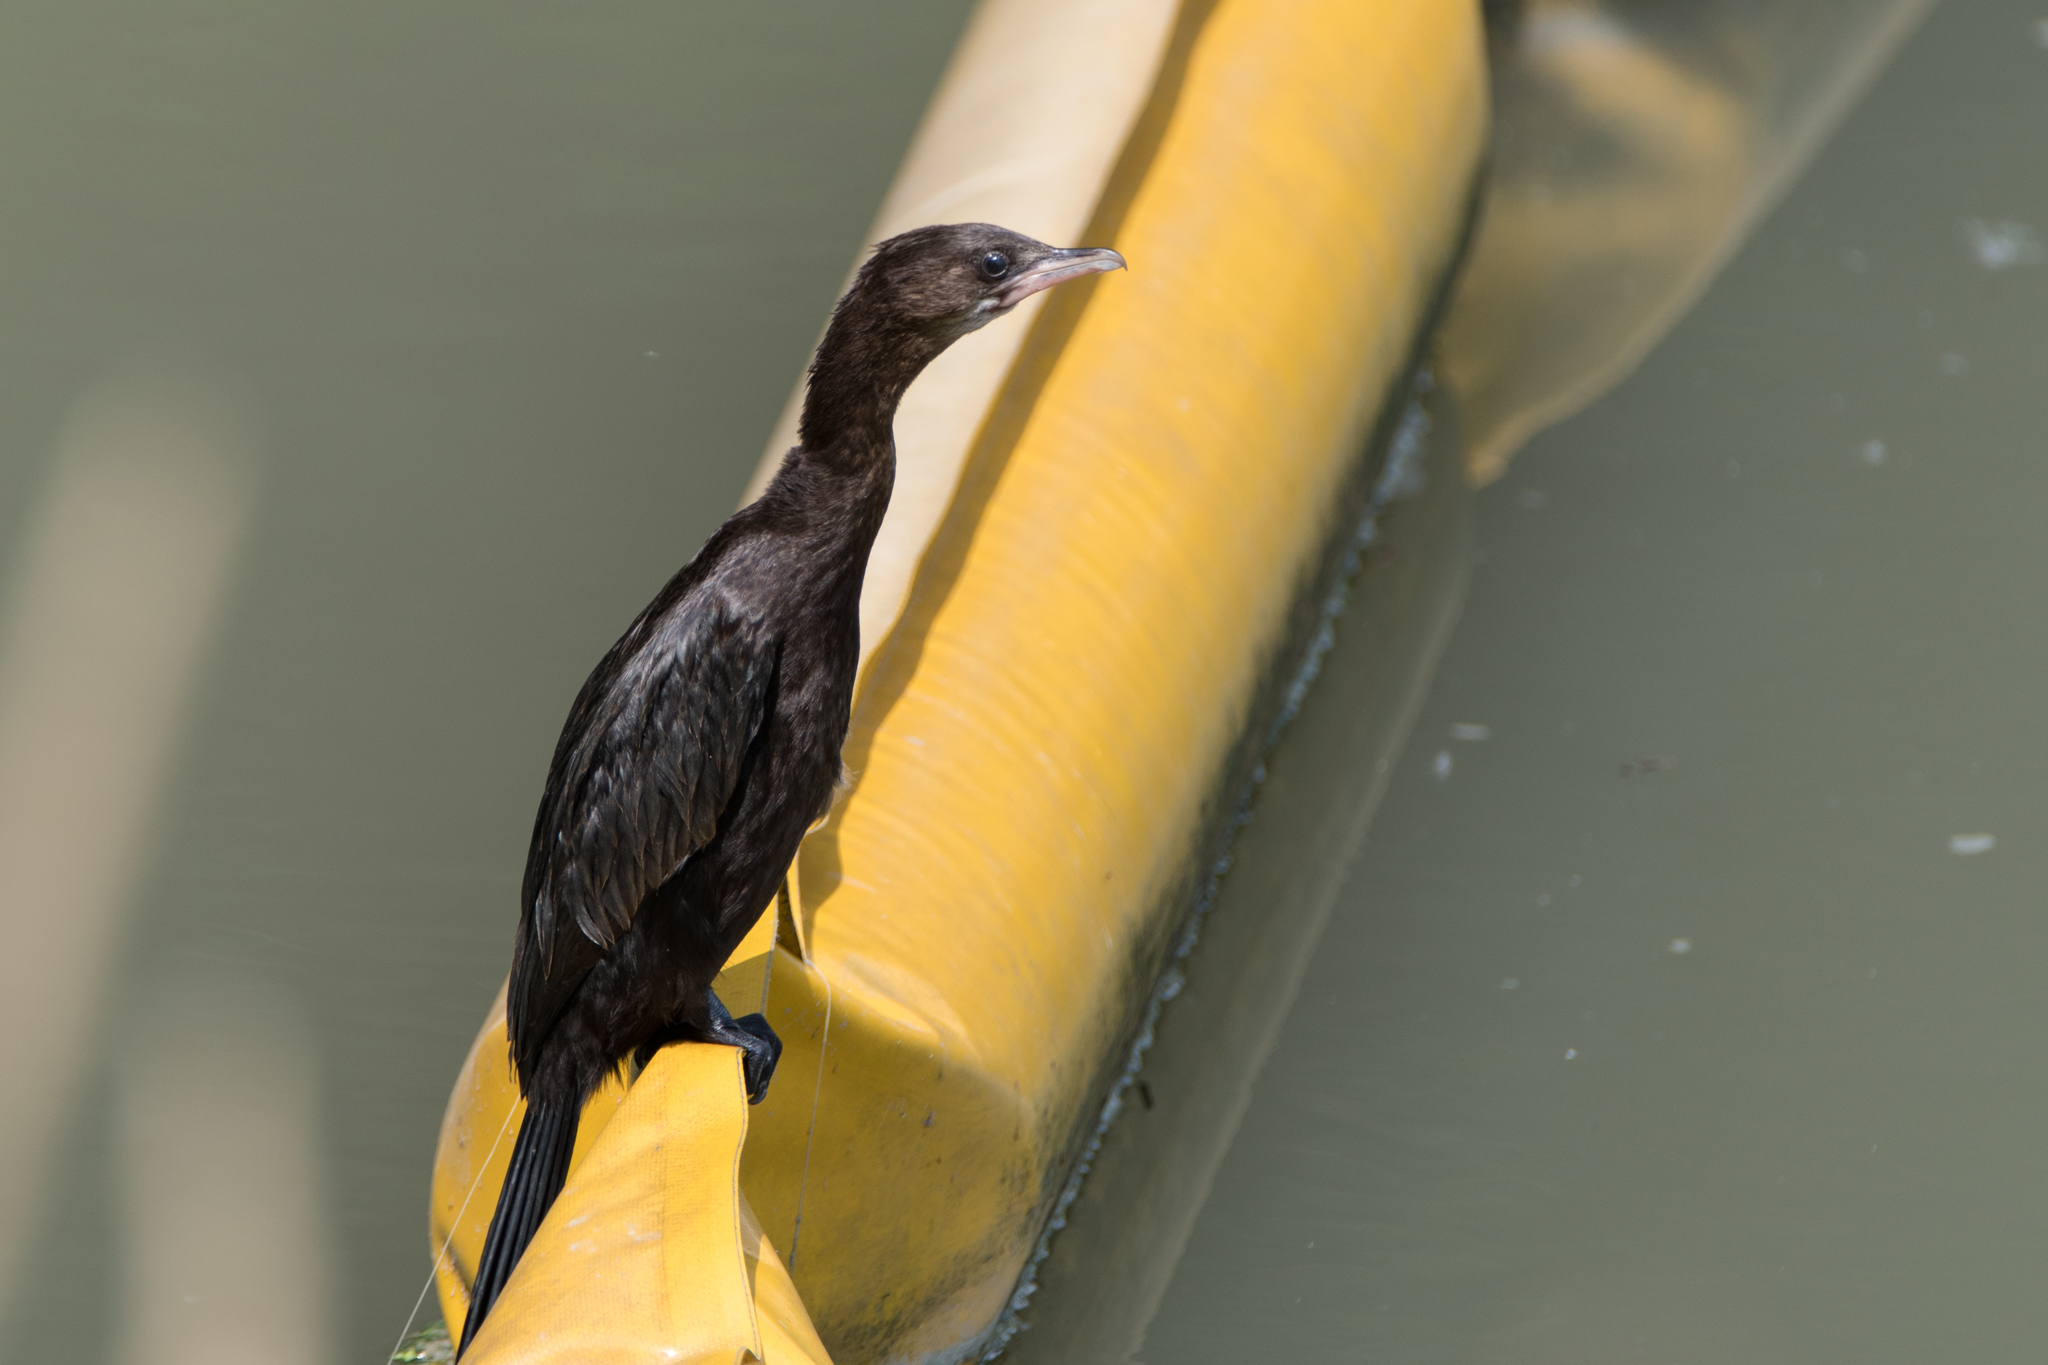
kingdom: Animalia
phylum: Chordata
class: Aves
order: Suliformes
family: Phalacrocoracidae
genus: Microcarbo
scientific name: Microcarbo pygmaeus
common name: Pygmy cormorant
